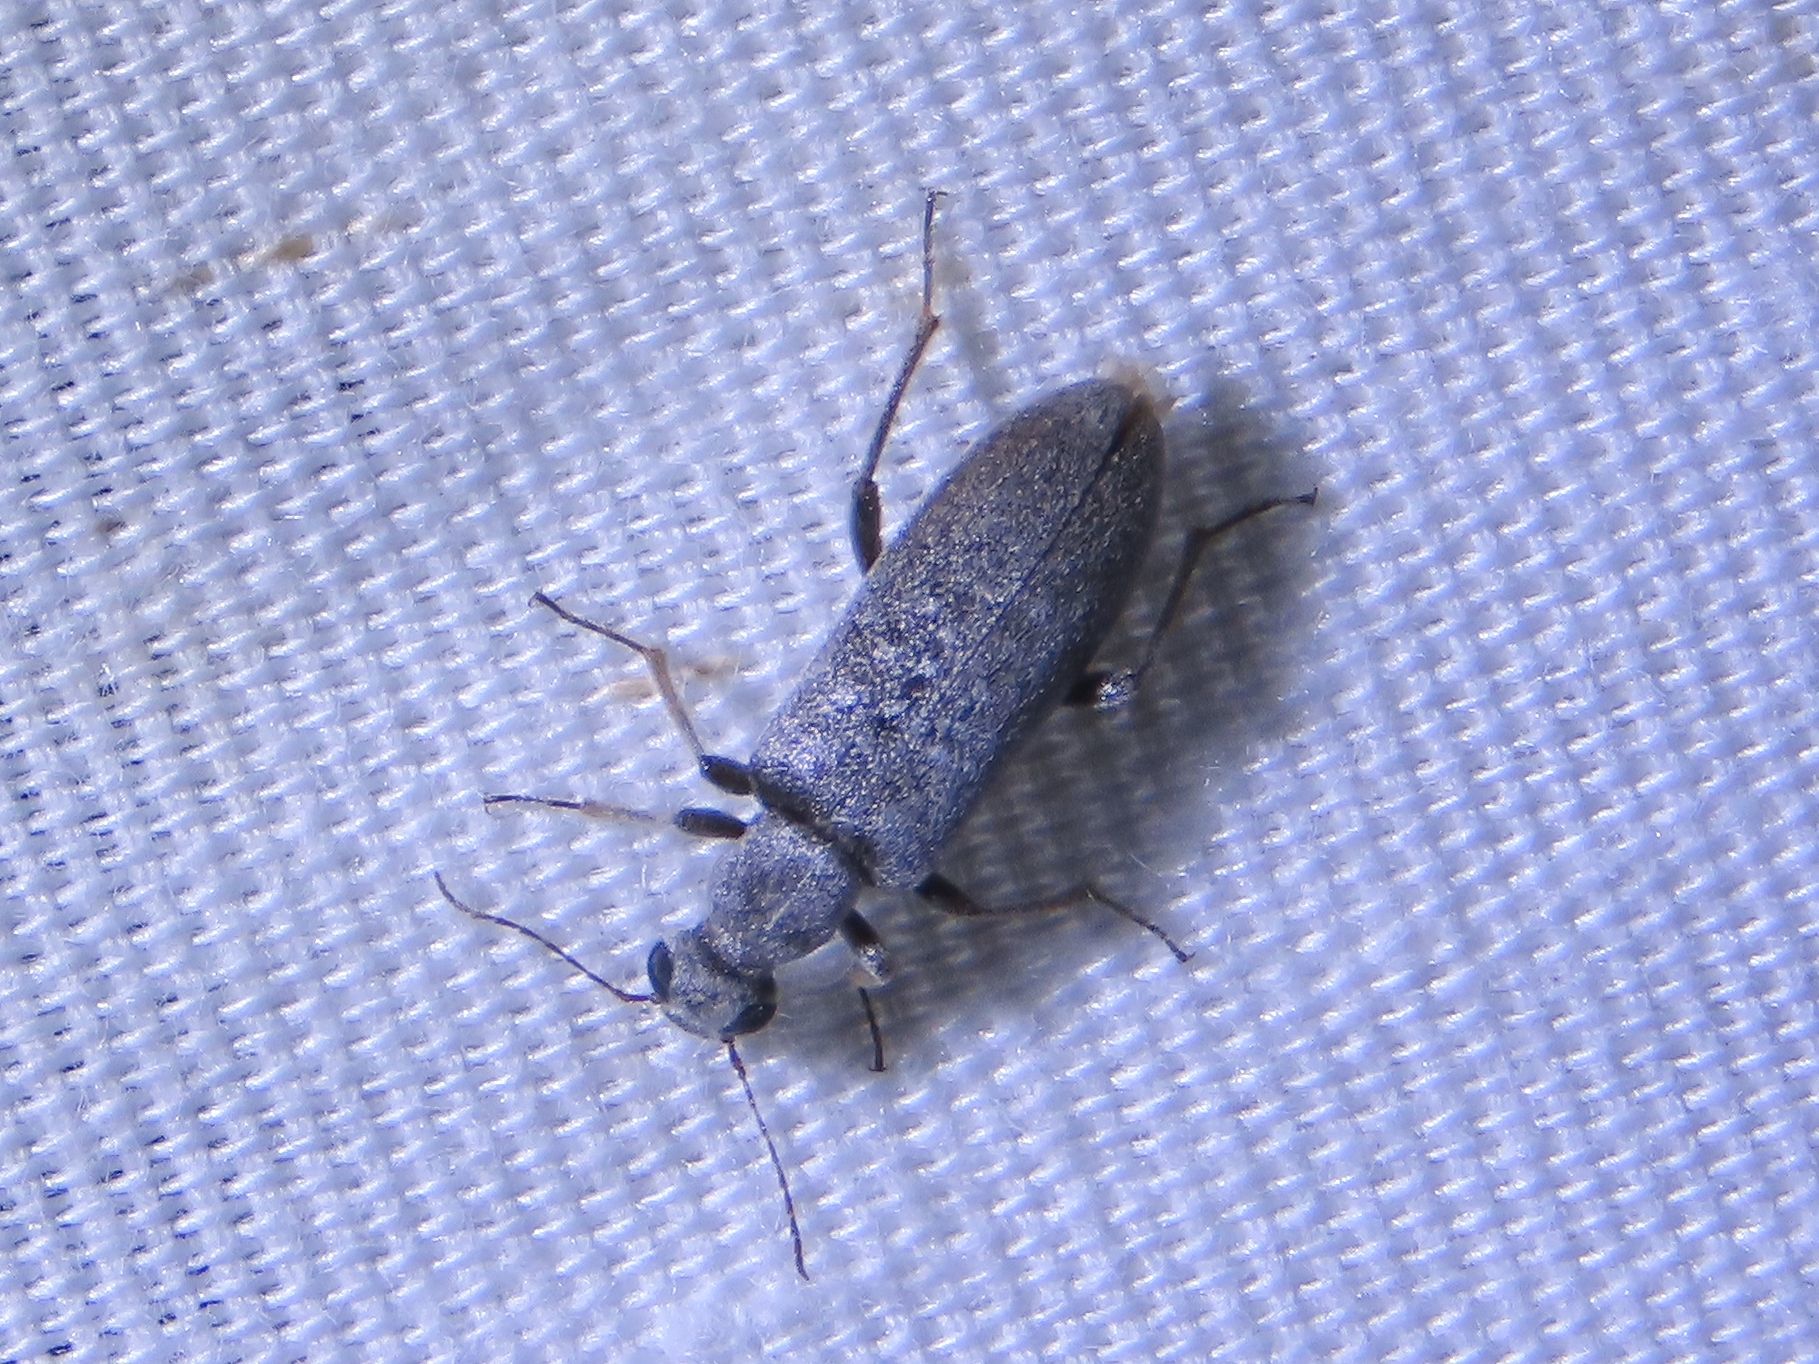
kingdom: Animalia
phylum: Arthropoda
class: Insecta
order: Coleoptera
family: Anthicidae
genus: Leptoremus
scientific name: Leptoremus argenteus
